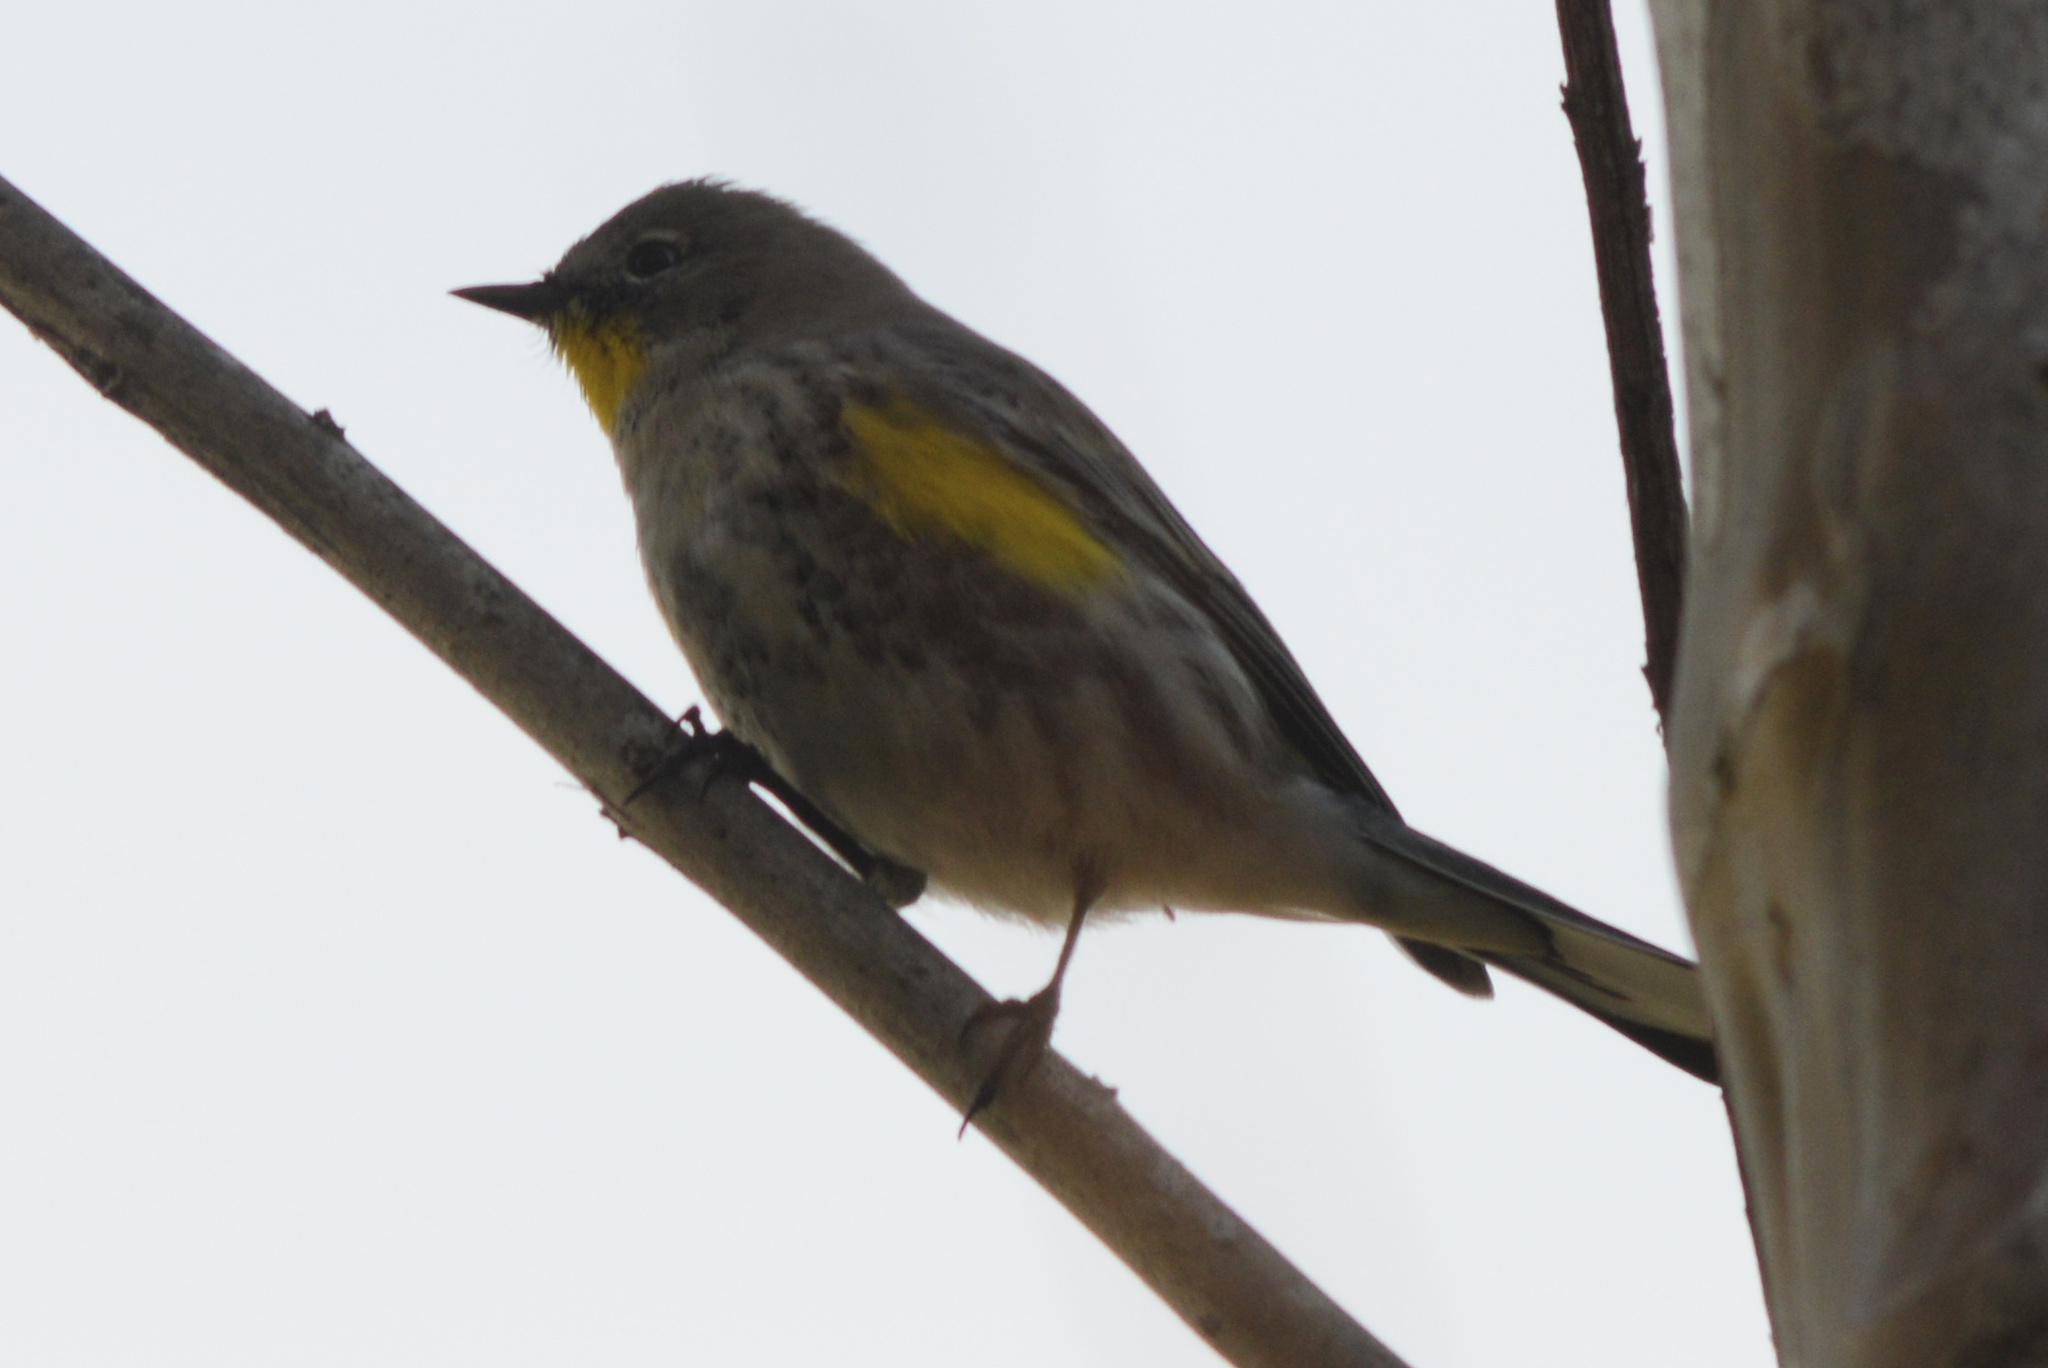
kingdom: Animalia
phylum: Chordata
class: Aves
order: Passeriformes
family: Parulidae
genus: Setophaga
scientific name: Setophaga auduboni
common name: Audubon's warbler
